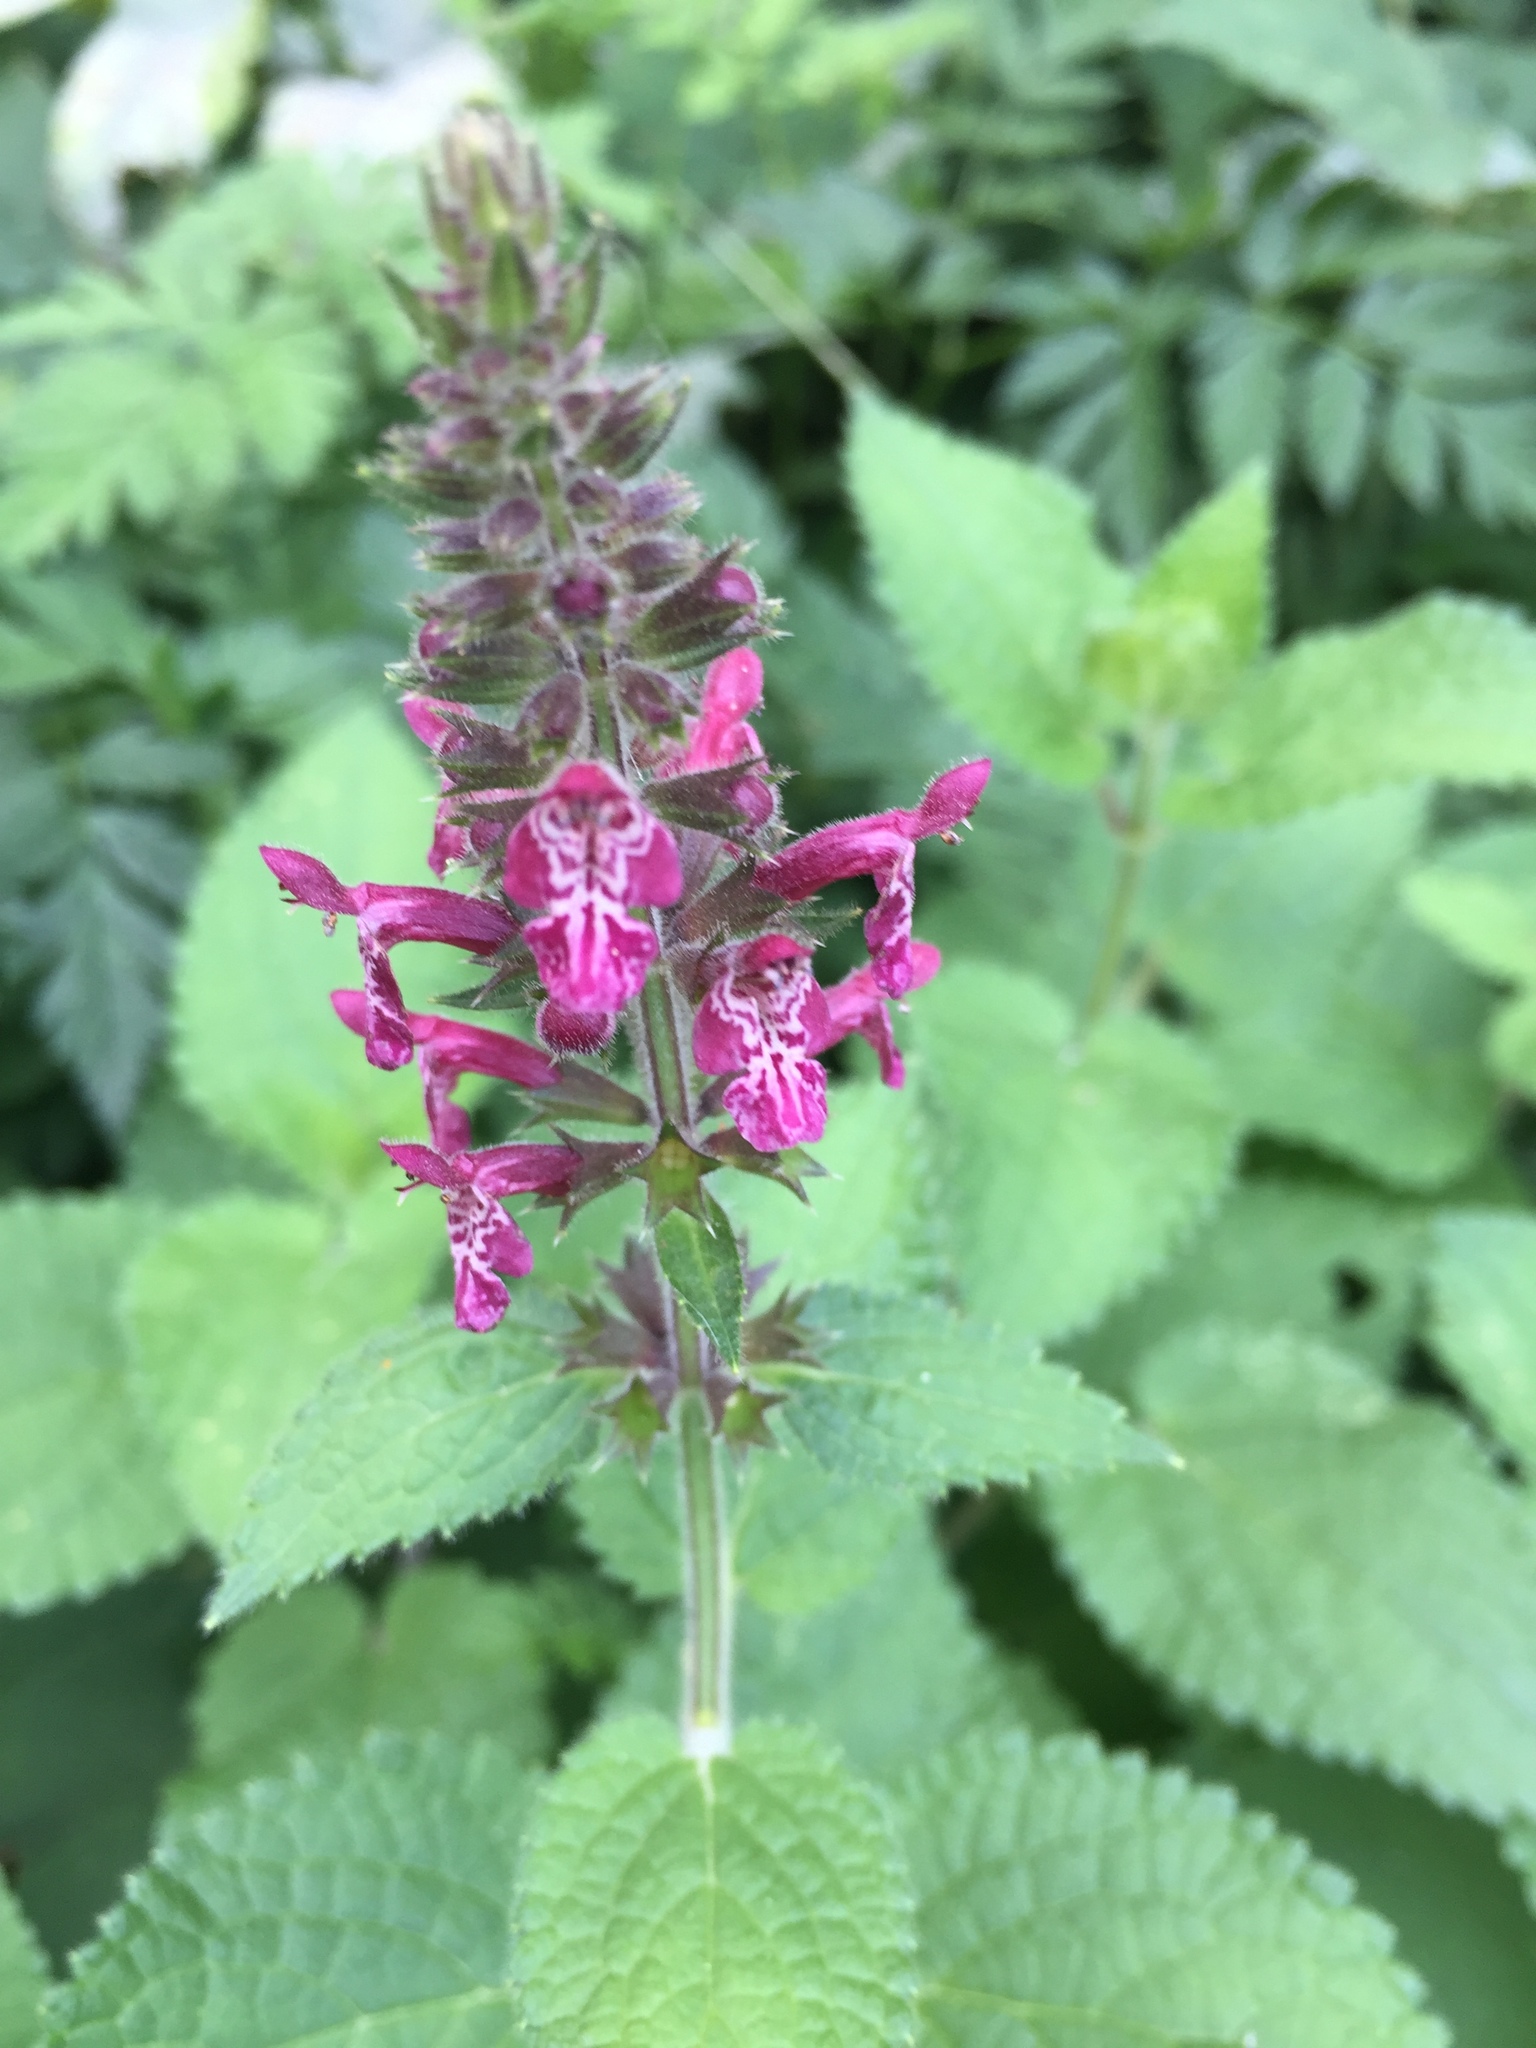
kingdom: Plantae
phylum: Tracheophyta
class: Magnoliopsida
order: Lamiales
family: Lamiaceae
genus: Stachys
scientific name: Stachys sylvatica
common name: Hedge woundwort
